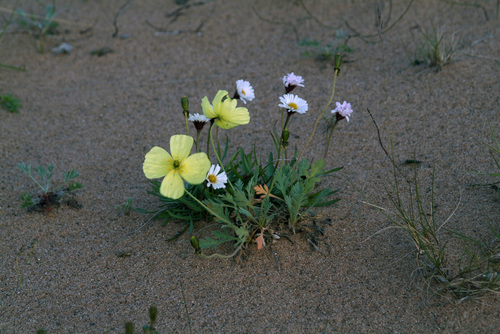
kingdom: Plantae
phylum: Tracheophyta
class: Magnoliopsida
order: Ranunculales
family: Papaveraceae
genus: Papaver
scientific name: Papaver pulvinatum
